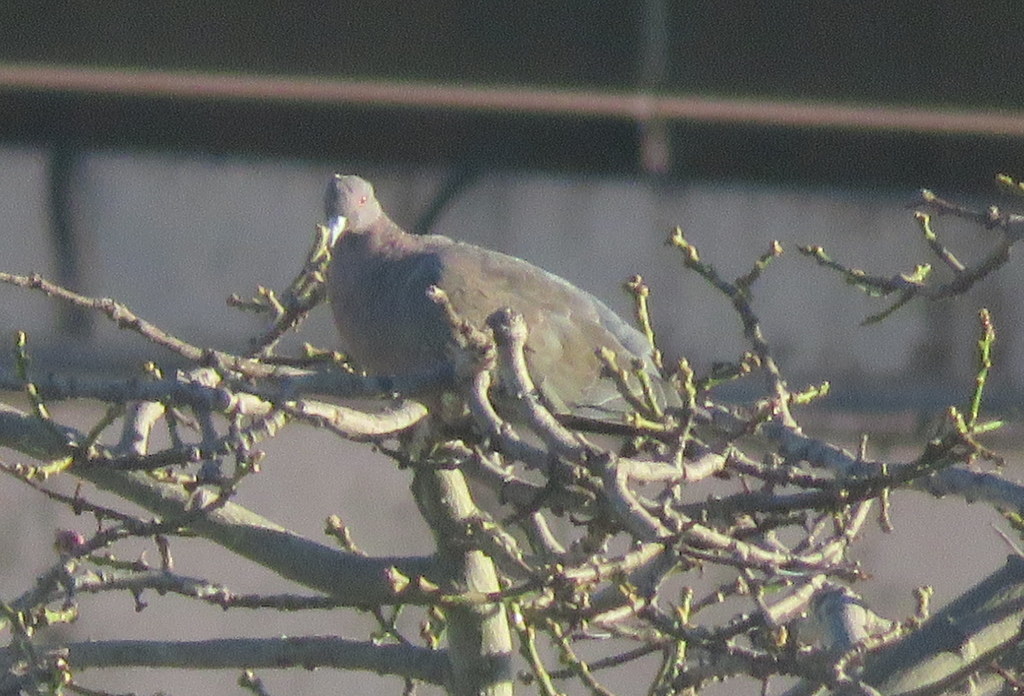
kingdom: Animalia
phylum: Chordata
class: Aves
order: Columbiformes
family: Columbidae
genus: Patagioenas
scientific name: Patagioenas picazuro
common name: Picazuro pigeon
